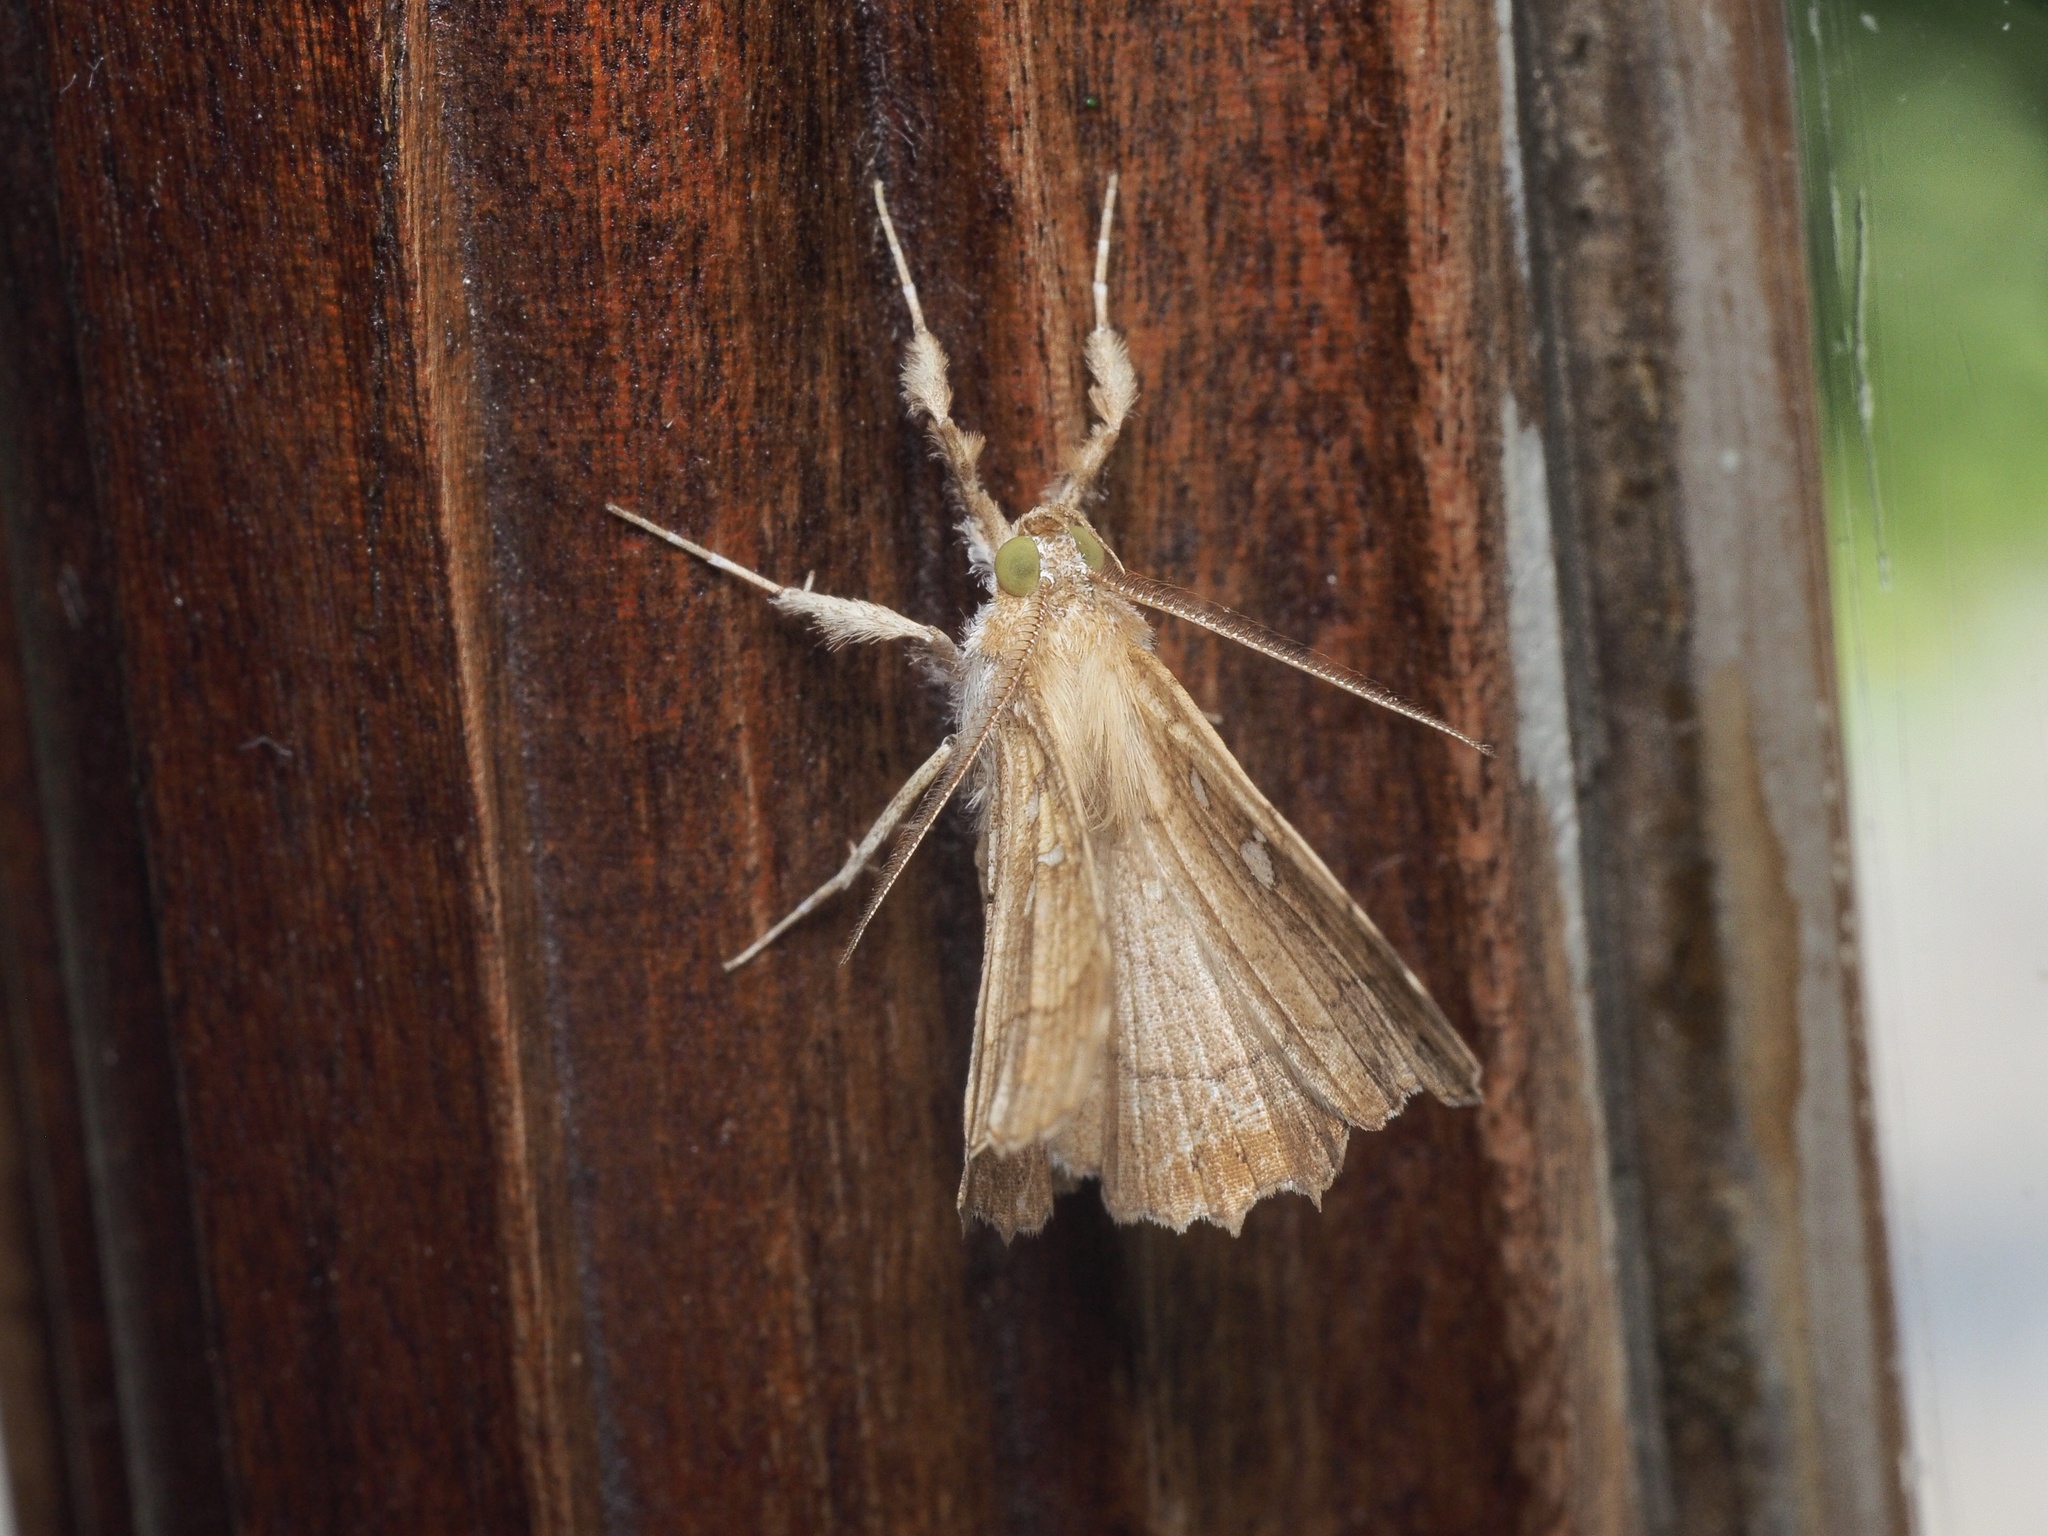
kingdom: Animalia
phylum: Arthropoda
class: Insecta
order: Lepidoptera
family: Erebidae
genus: Egnasia
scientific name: Egnasia vicaria
